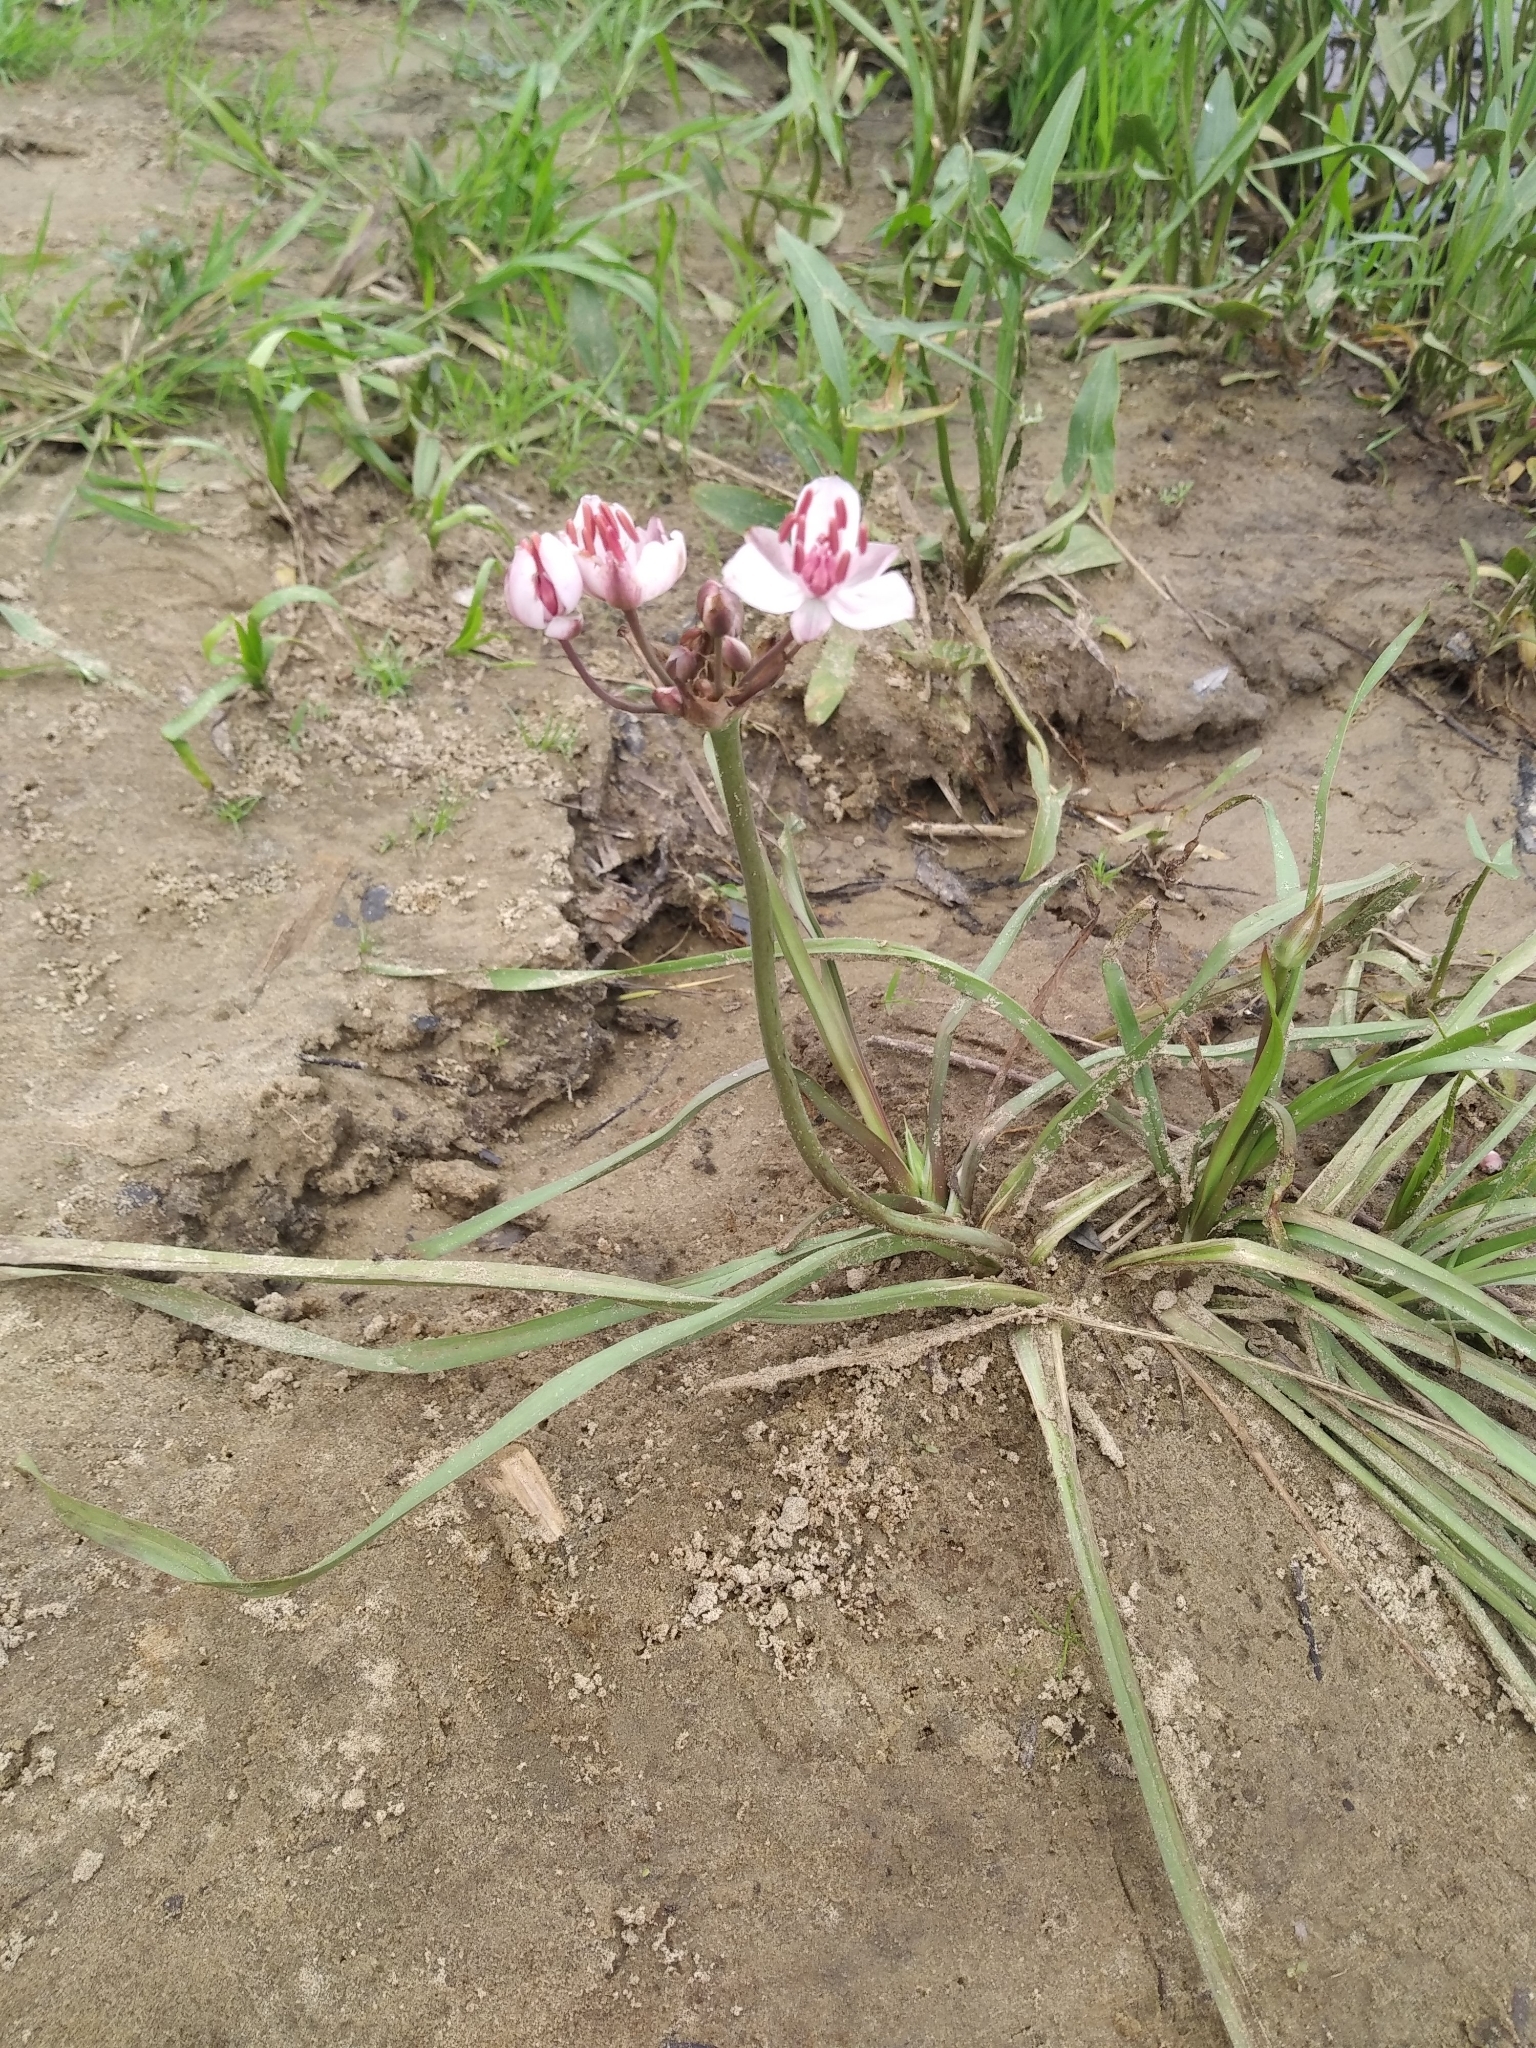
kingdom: Plantae
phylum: Tracheophyta
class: Liliopsida
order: Alismatales
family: Butomaceae
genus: Butomus
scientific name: Butomus umbellatus
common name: Flowering-rush
